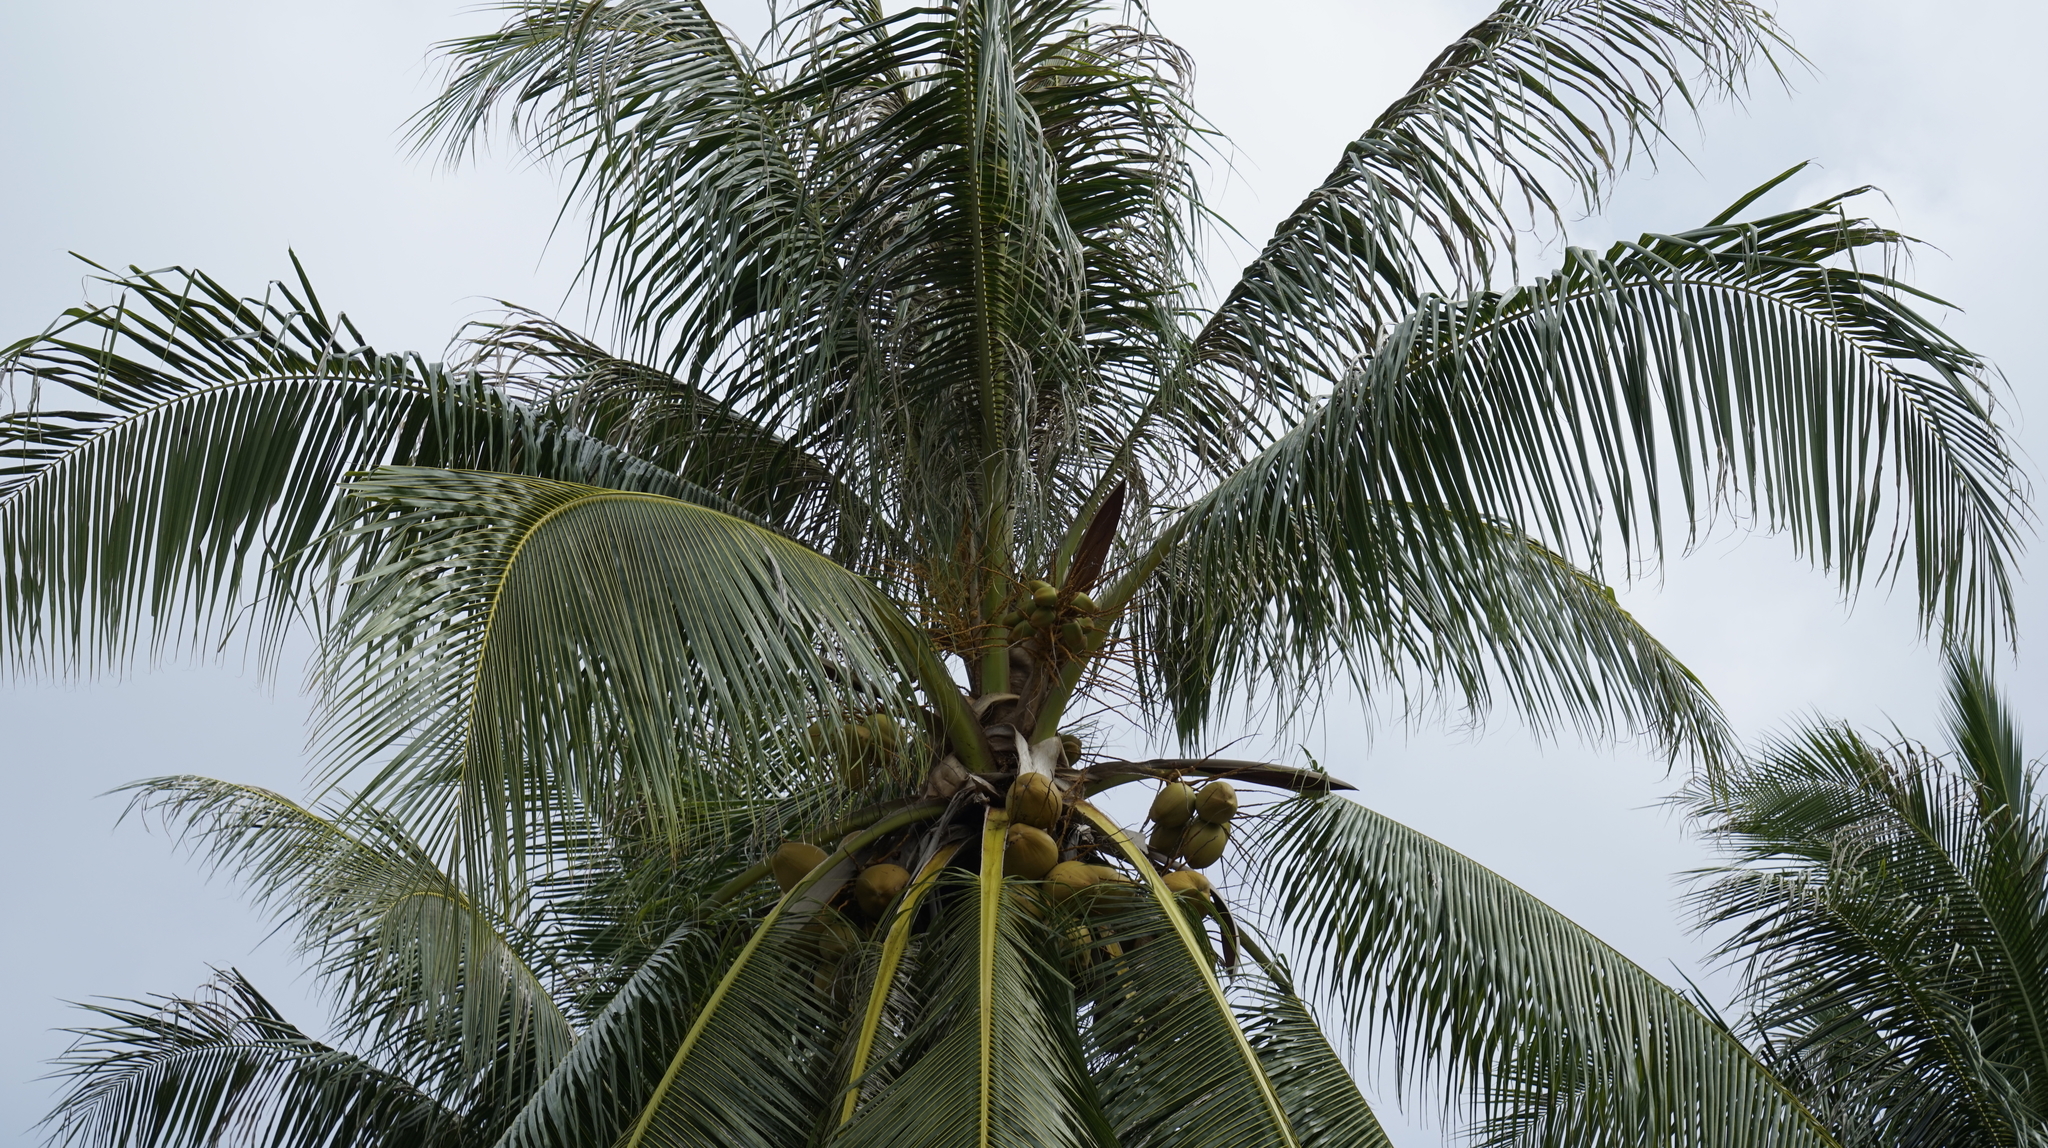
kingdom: Plantae
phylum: Tracheophyta
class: Liliopsida
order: Arecales
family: Arecaceae
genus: Cocos
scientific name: Cocos nucifera
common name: Coconut palm
